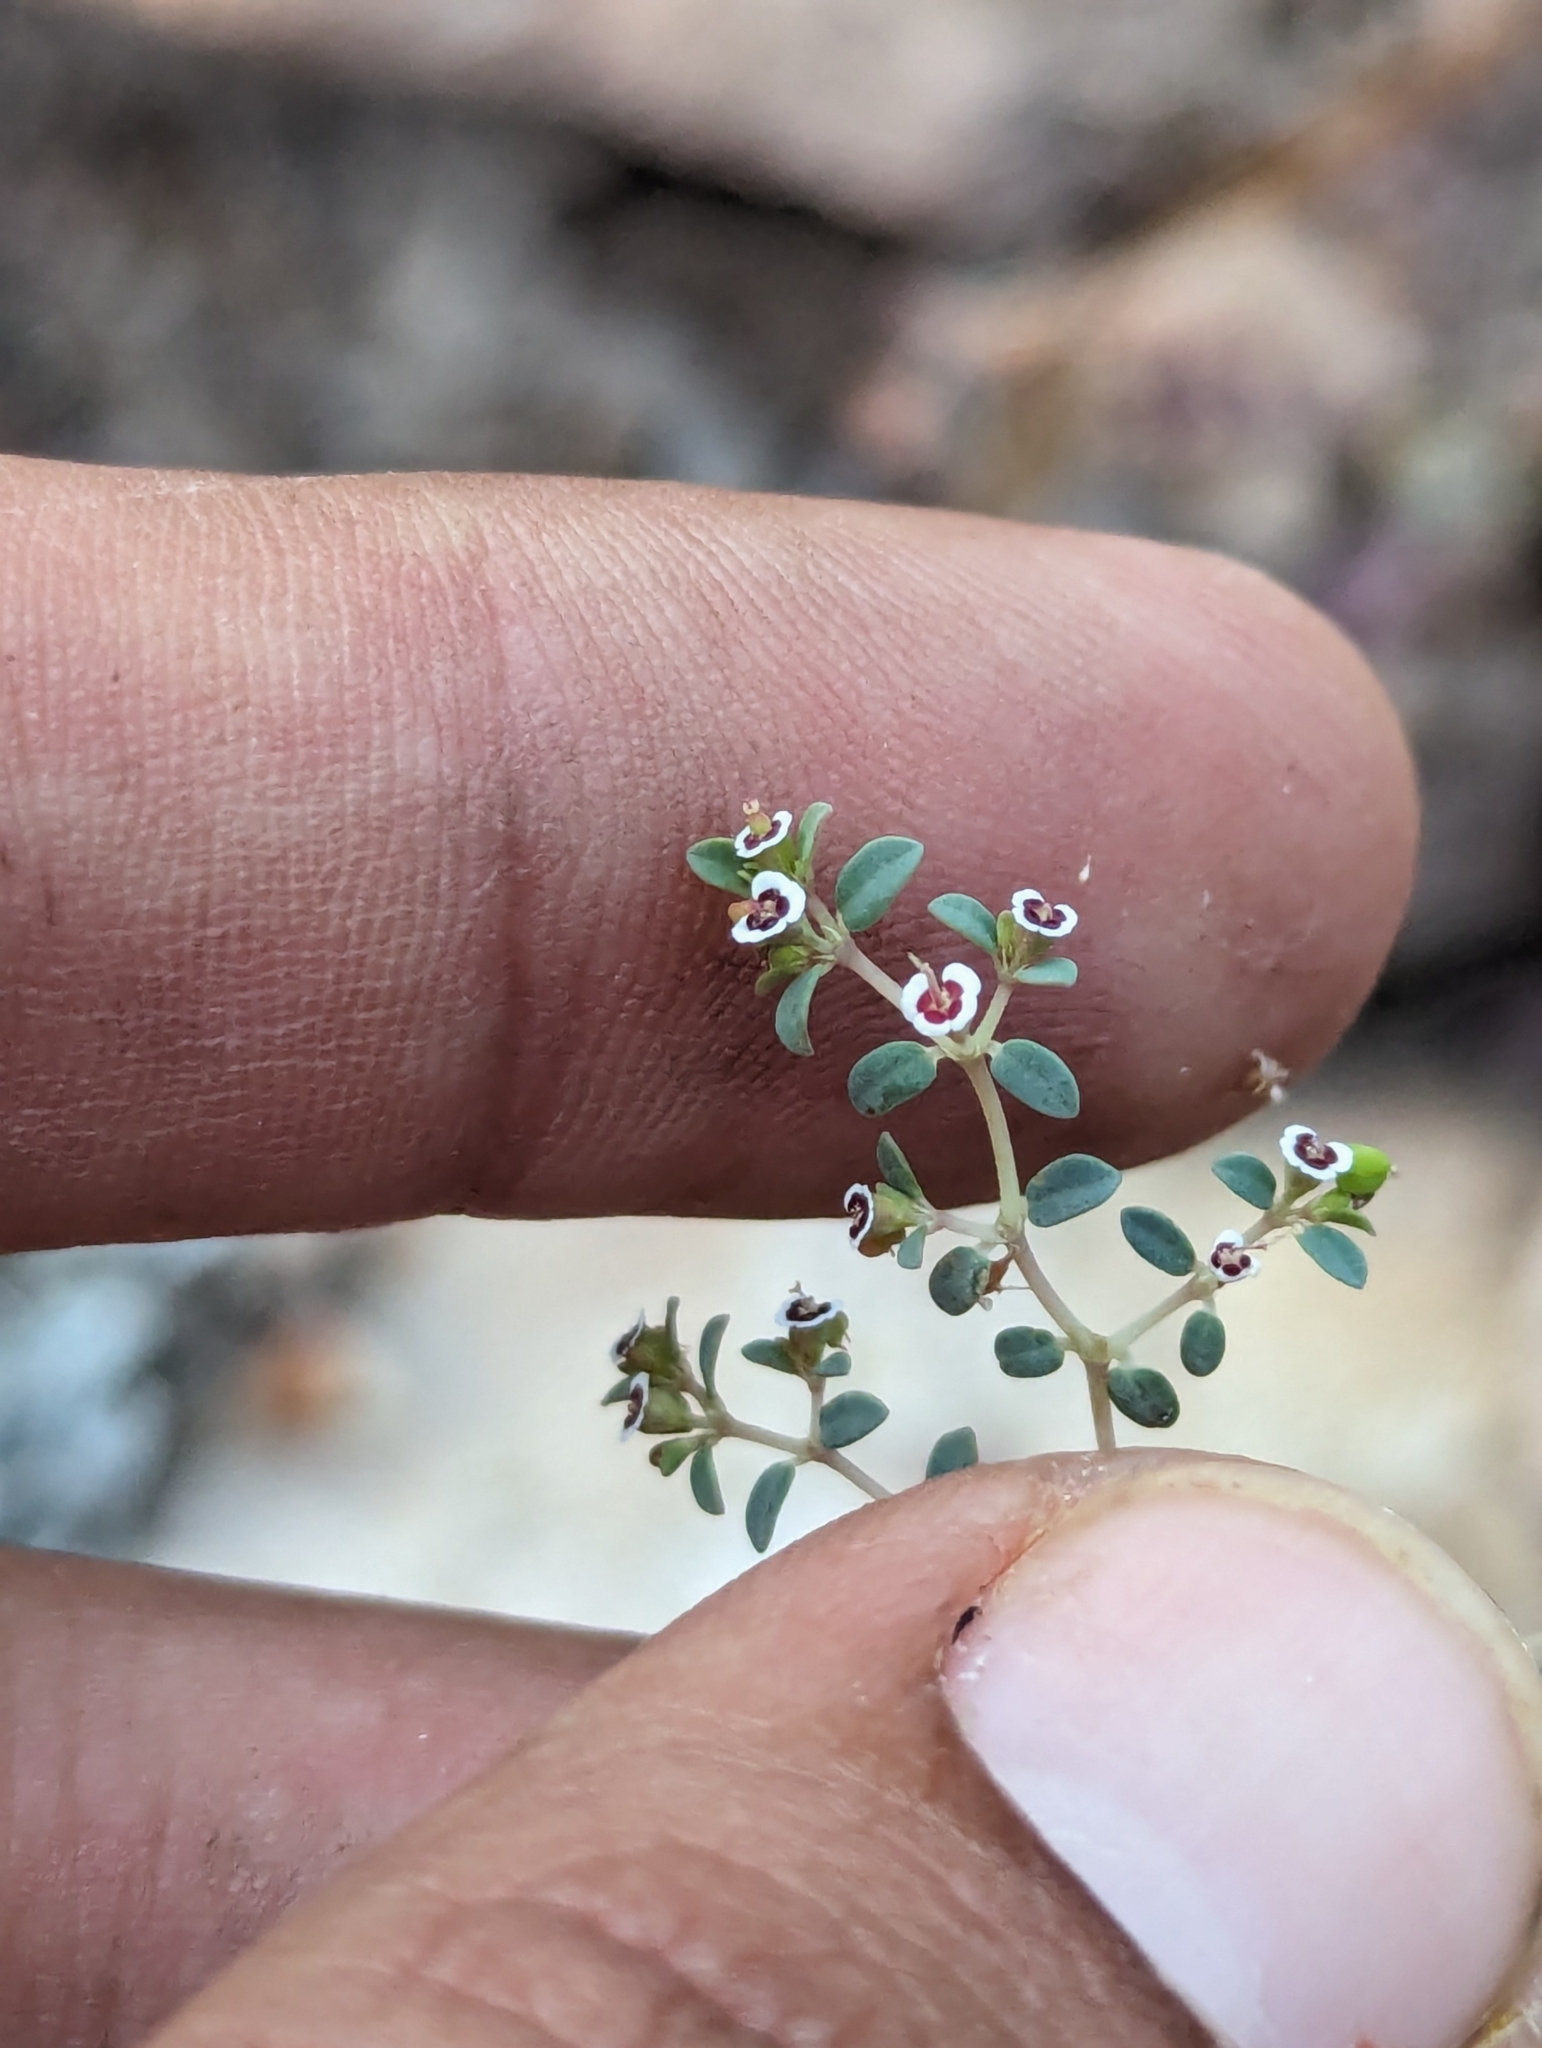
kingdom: Plantae
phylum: Tracheophyta
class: Magnoliopsida
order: Malpighiales
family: Euphorbiaceae
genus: Euphorbia
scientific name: Euphorbia polycarpa
